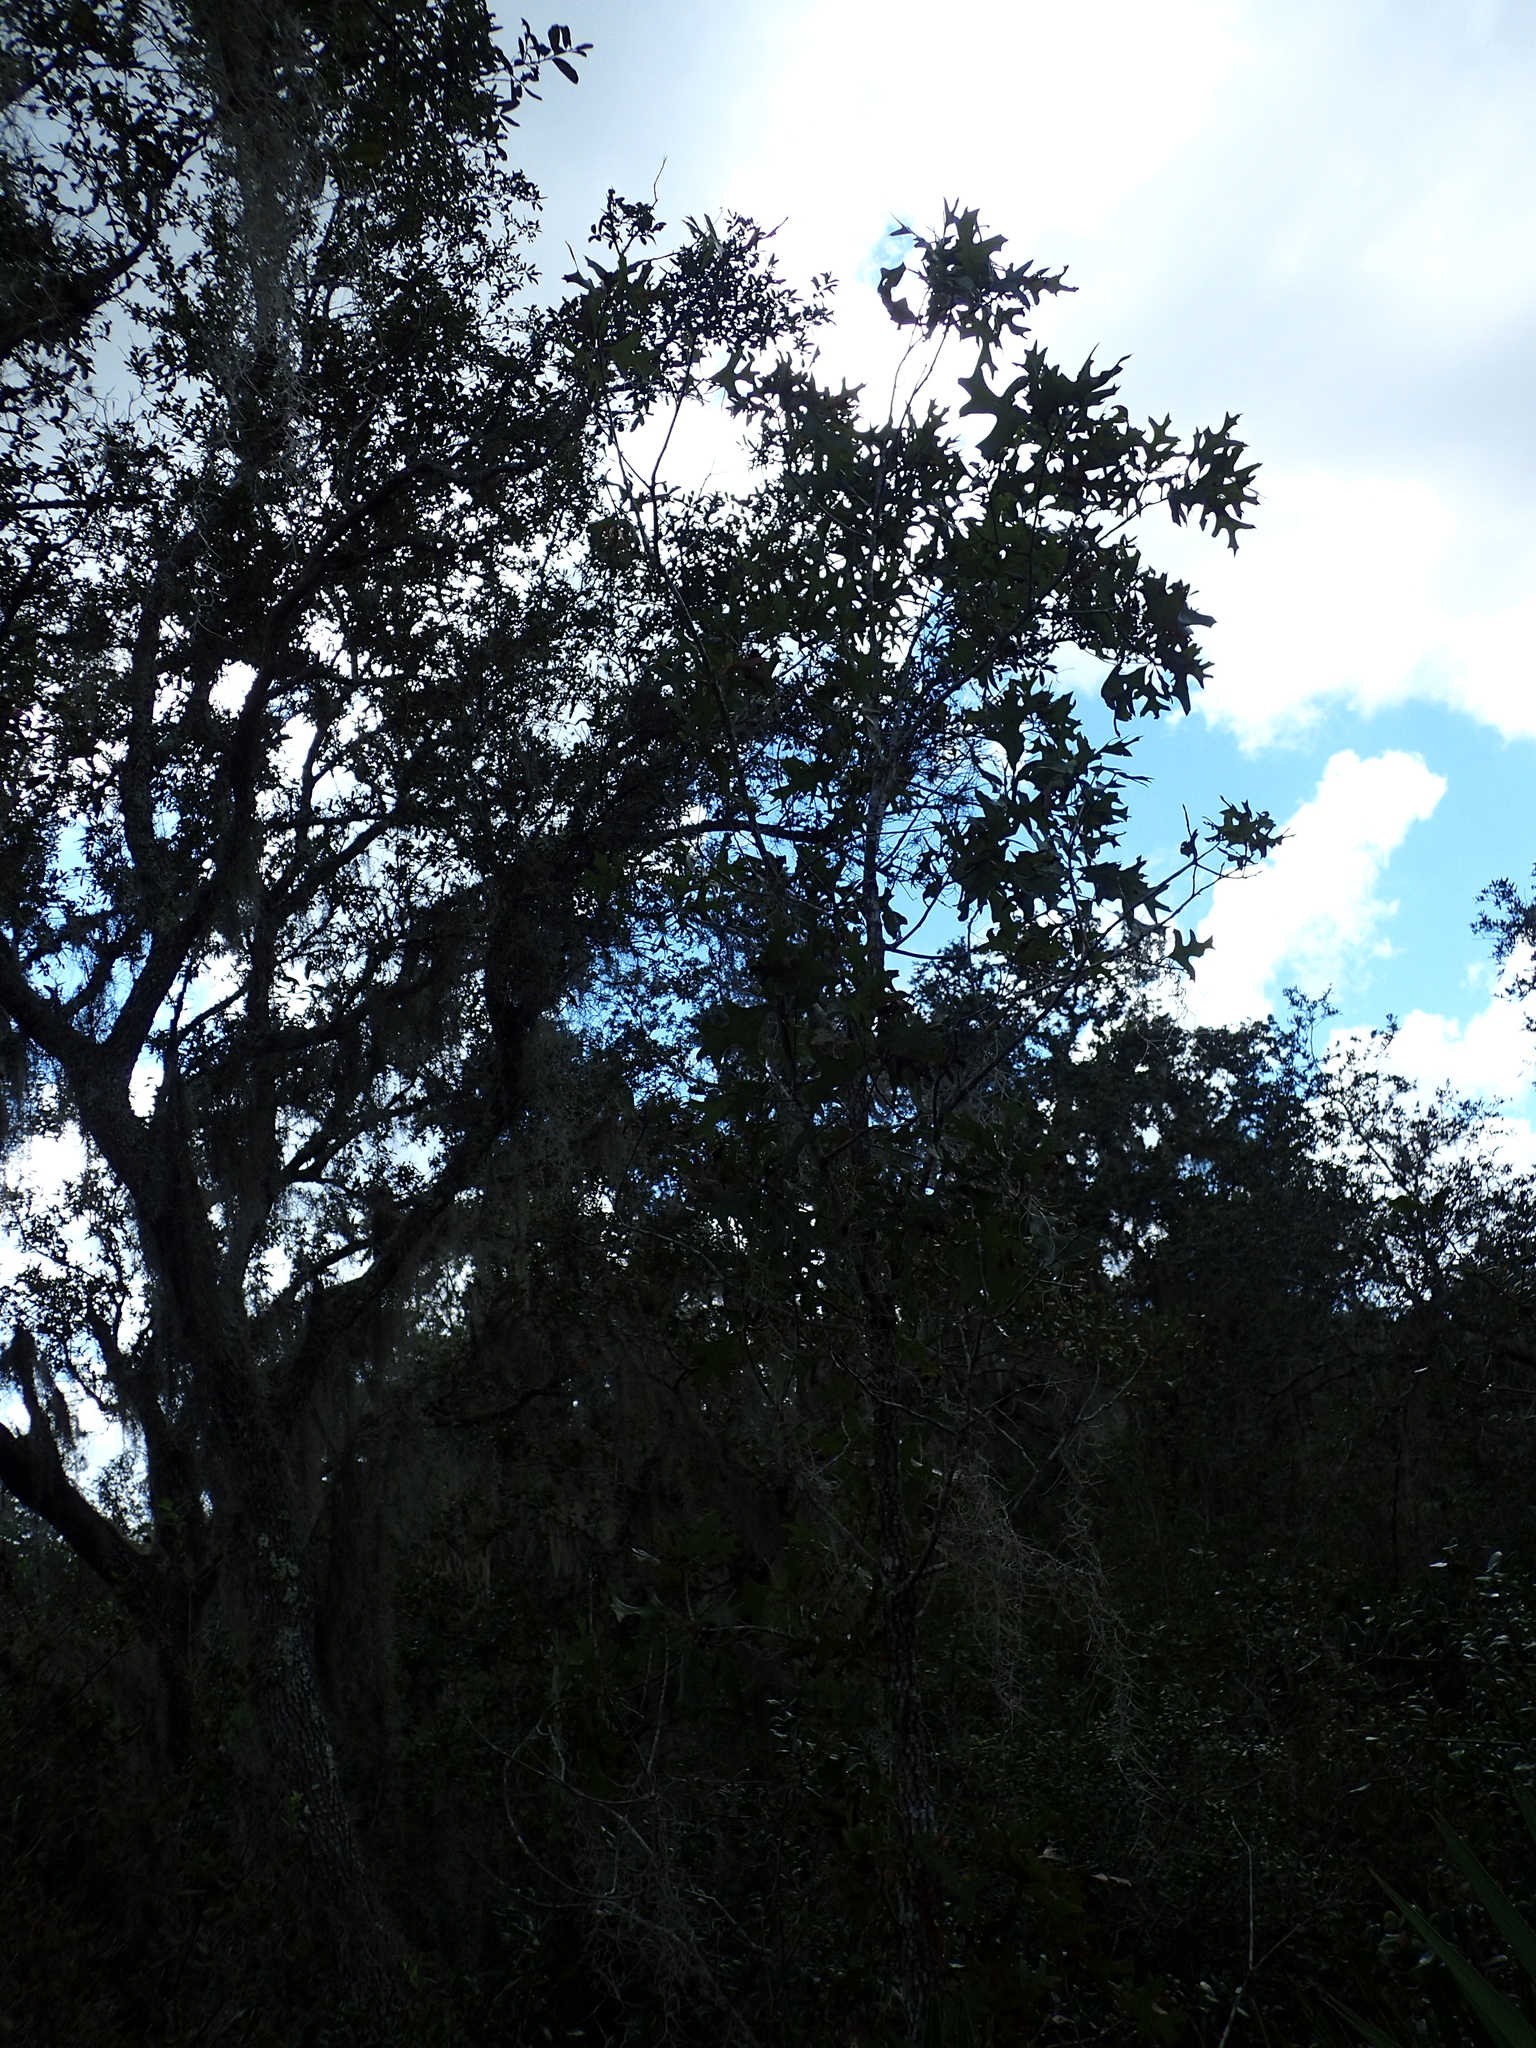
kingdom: Plantae
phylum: Tracheophyta
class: Magnoliopsida
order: Fagales
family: Fagaceae
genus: Quercus
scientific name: Quercus laevis
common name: Turkey oak
